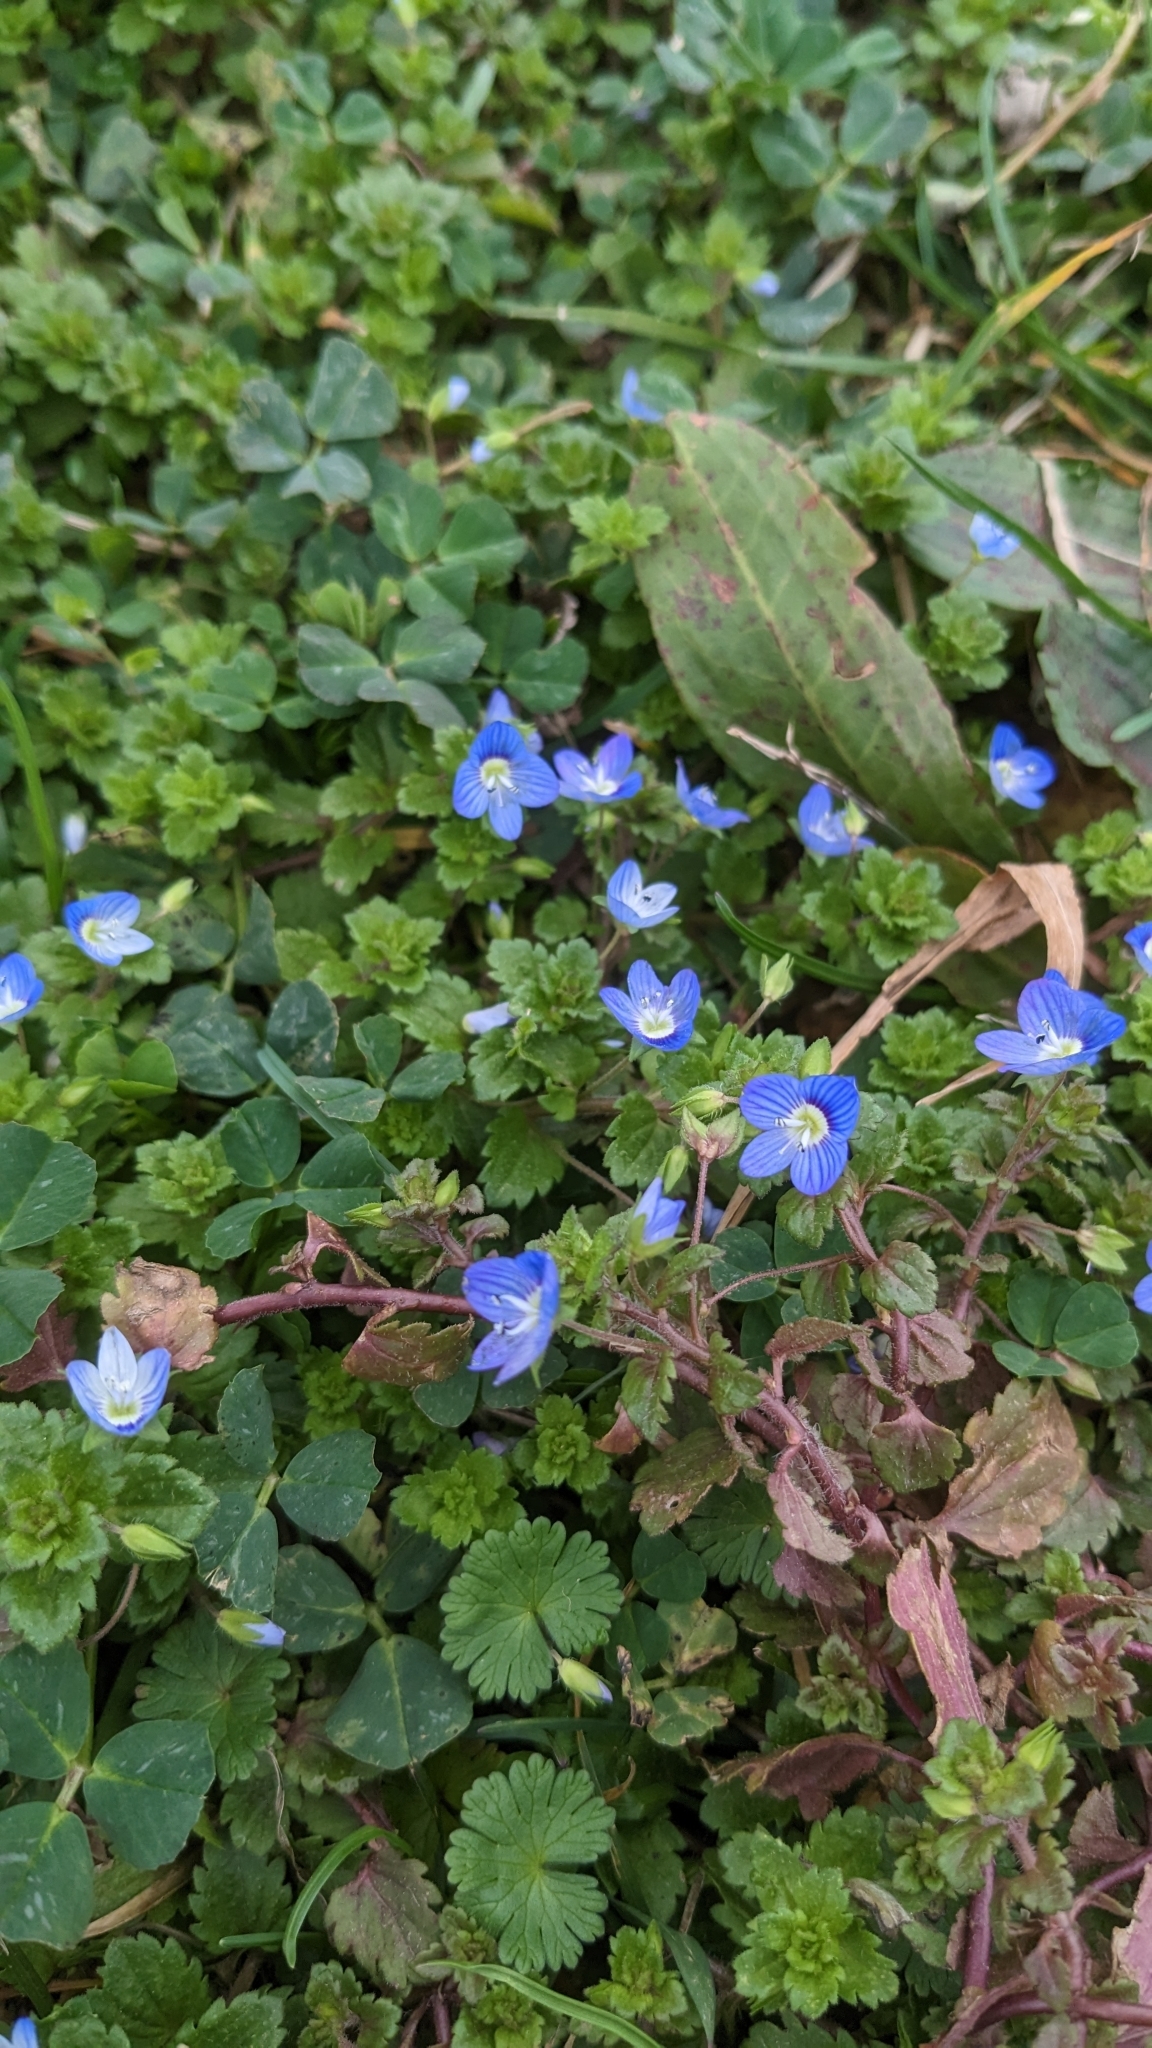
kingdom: Plantae
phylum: Tracheophyta
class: Magnoliopsida
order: Lamiales
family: Plantaginaceae
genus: Veronica
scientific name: Veronica persica
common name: Common field-speedwell
